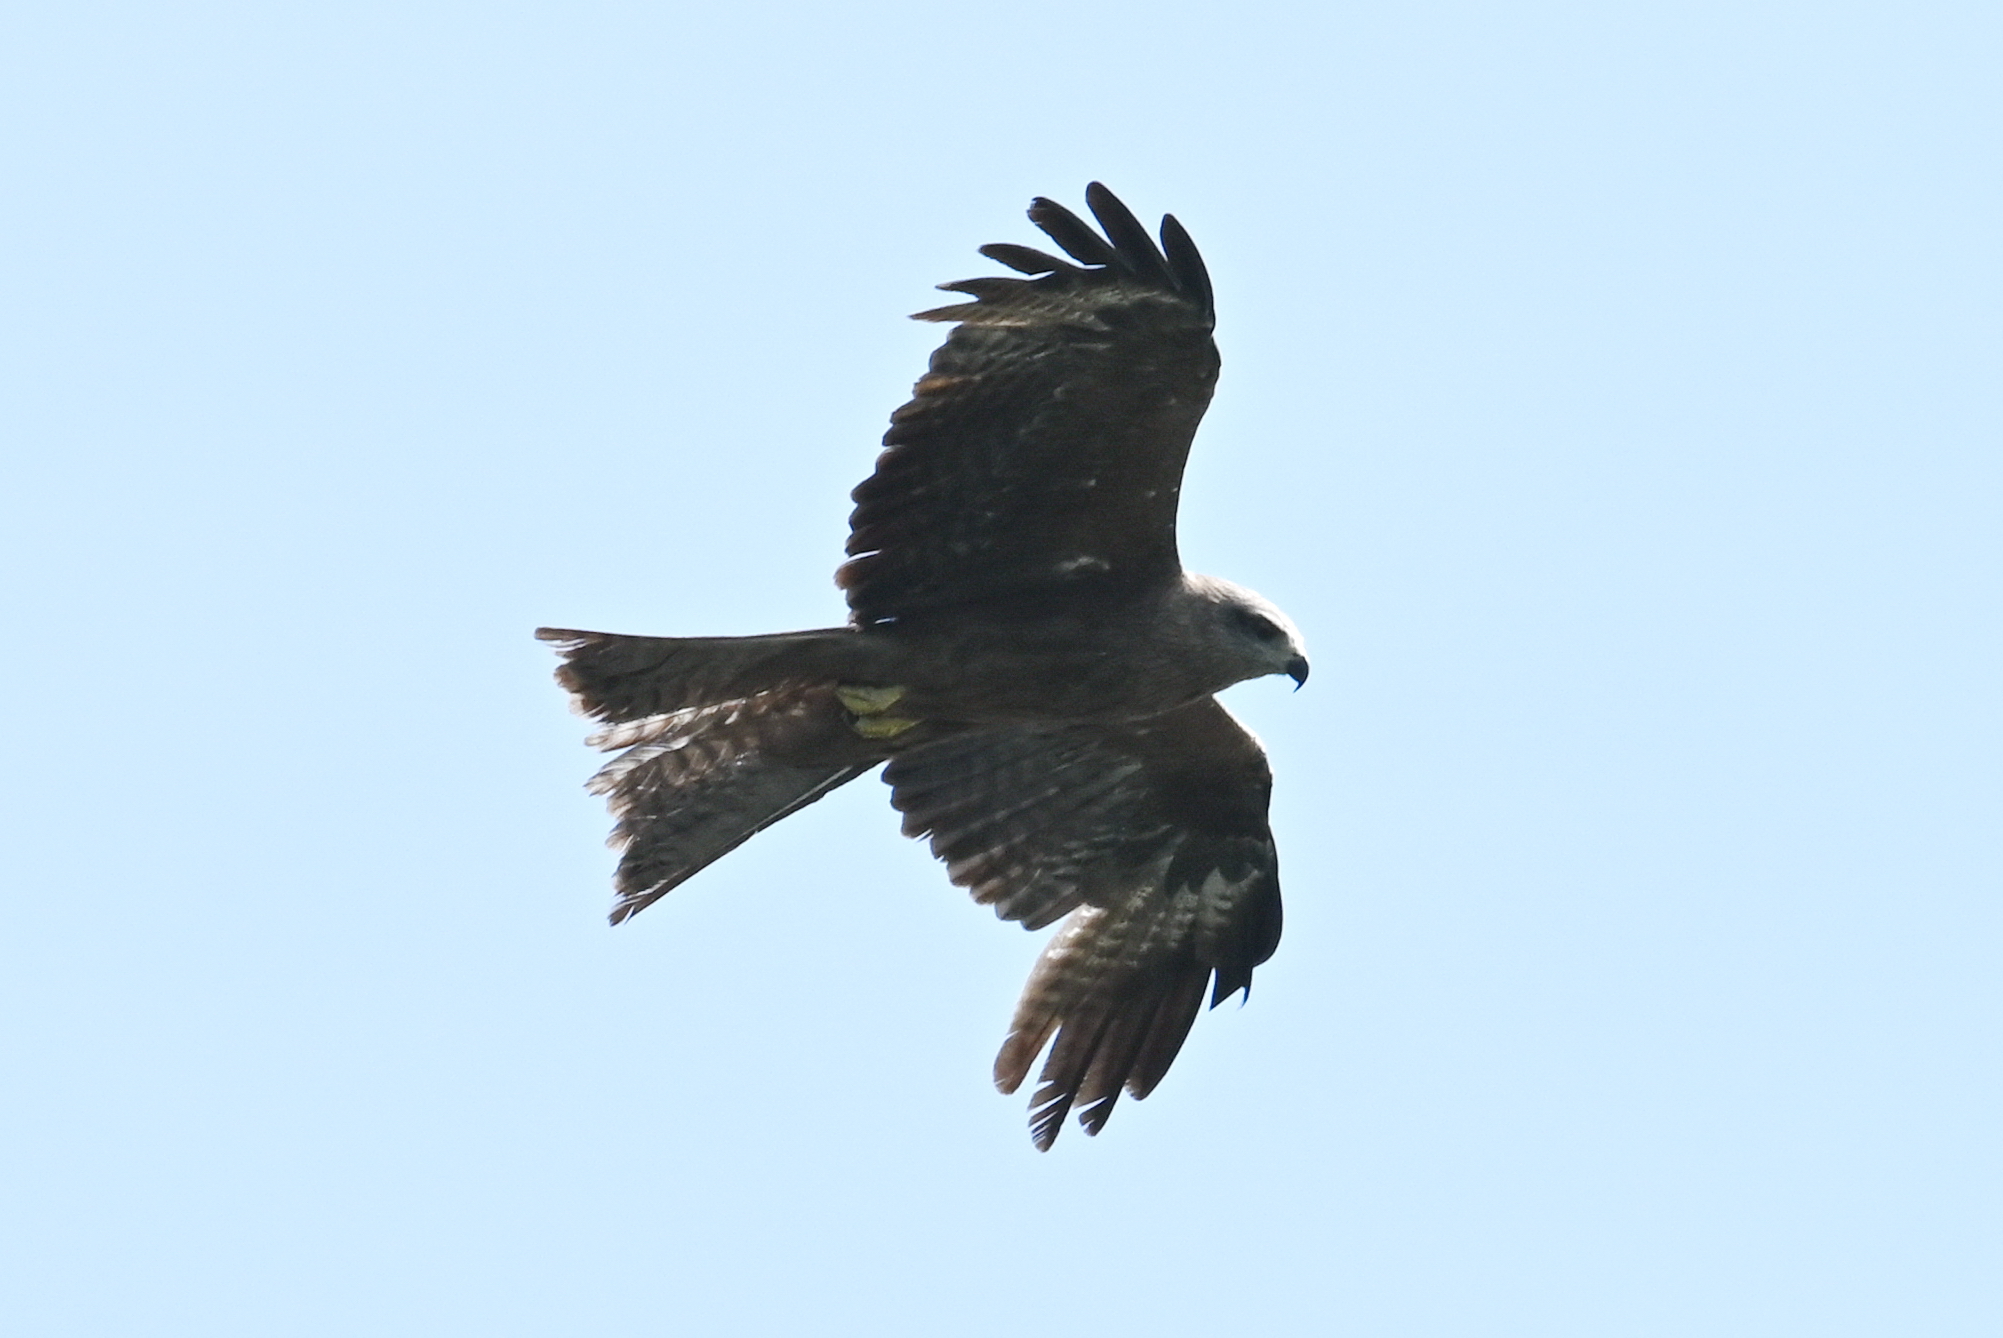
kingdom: Animalia
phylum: Chordata
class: Aves
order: Accipitriformes
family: Accipitridae
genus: Milvus
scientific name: Milvus migrans
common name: Black kite
